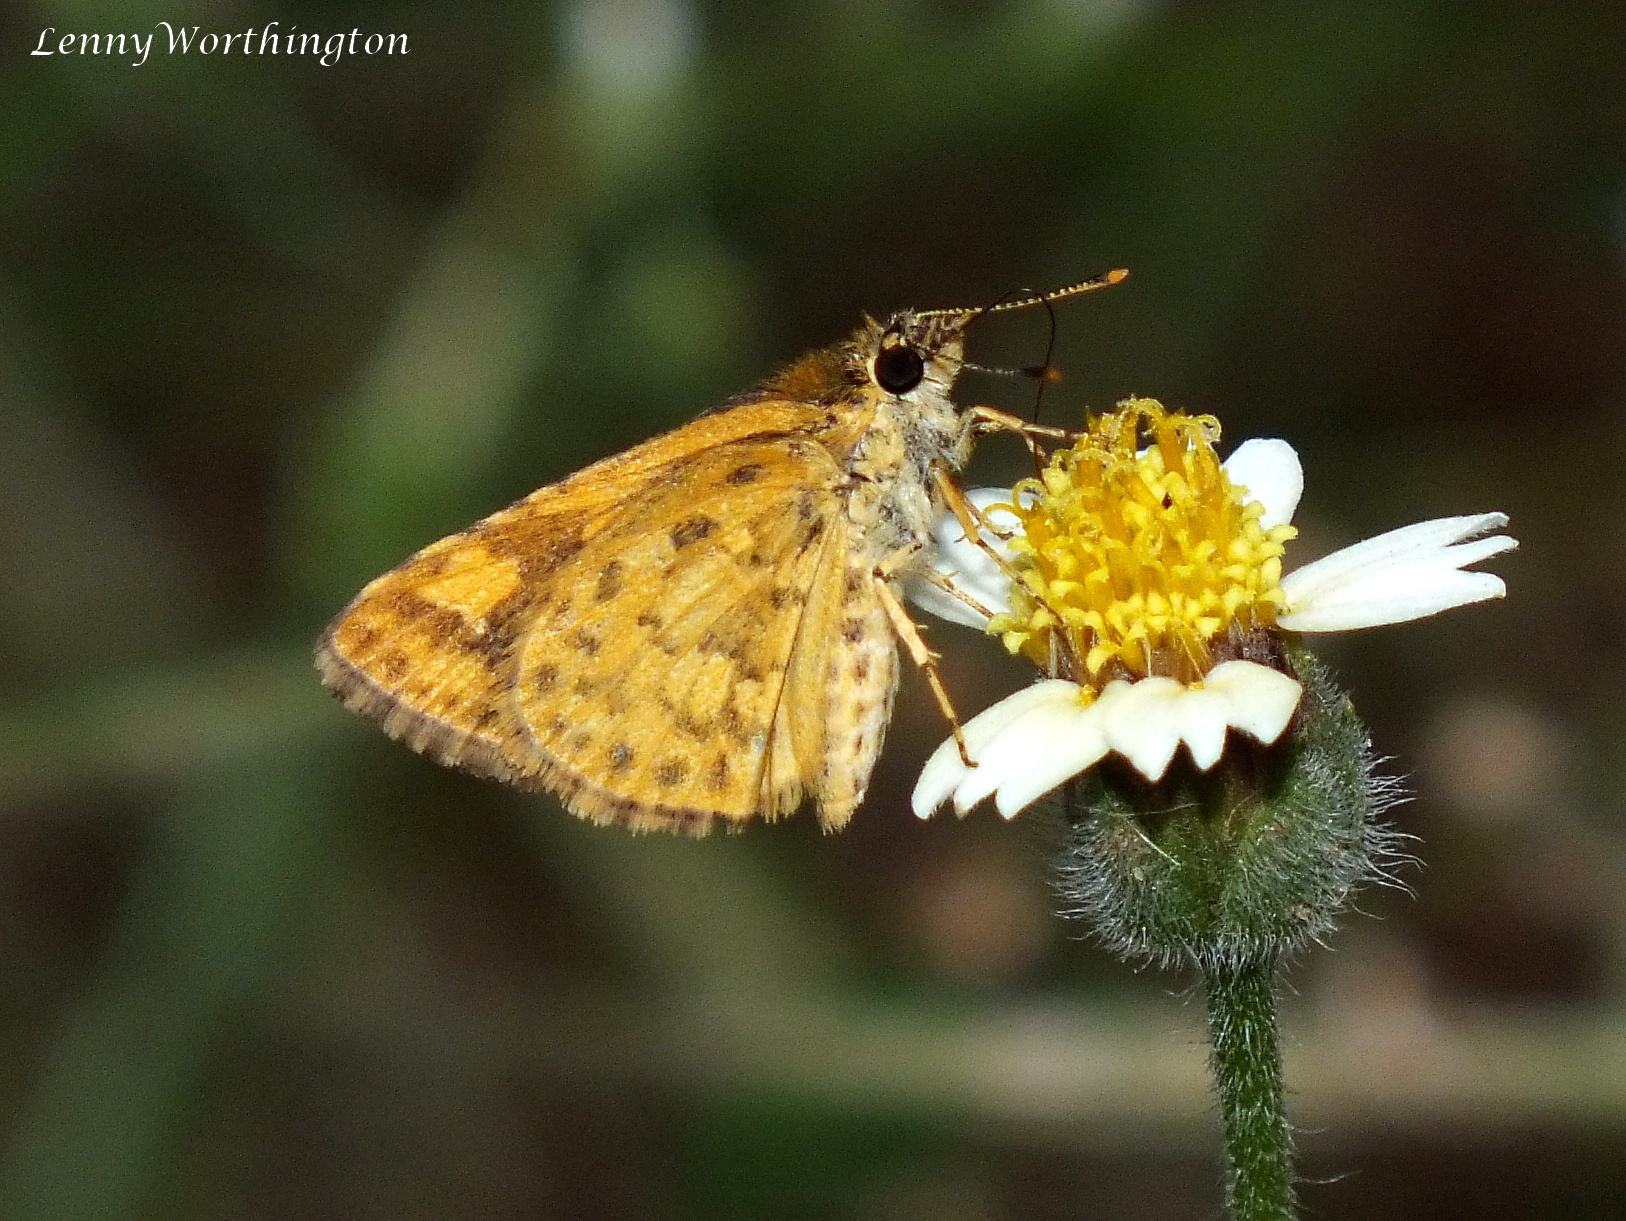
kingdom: Animalia
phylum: Arthropoda
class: Insecta
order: Lepidoptera
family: Hesperiidae
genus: Ampittia
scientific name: Ampittia dioscorides
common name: Common bush hopper
